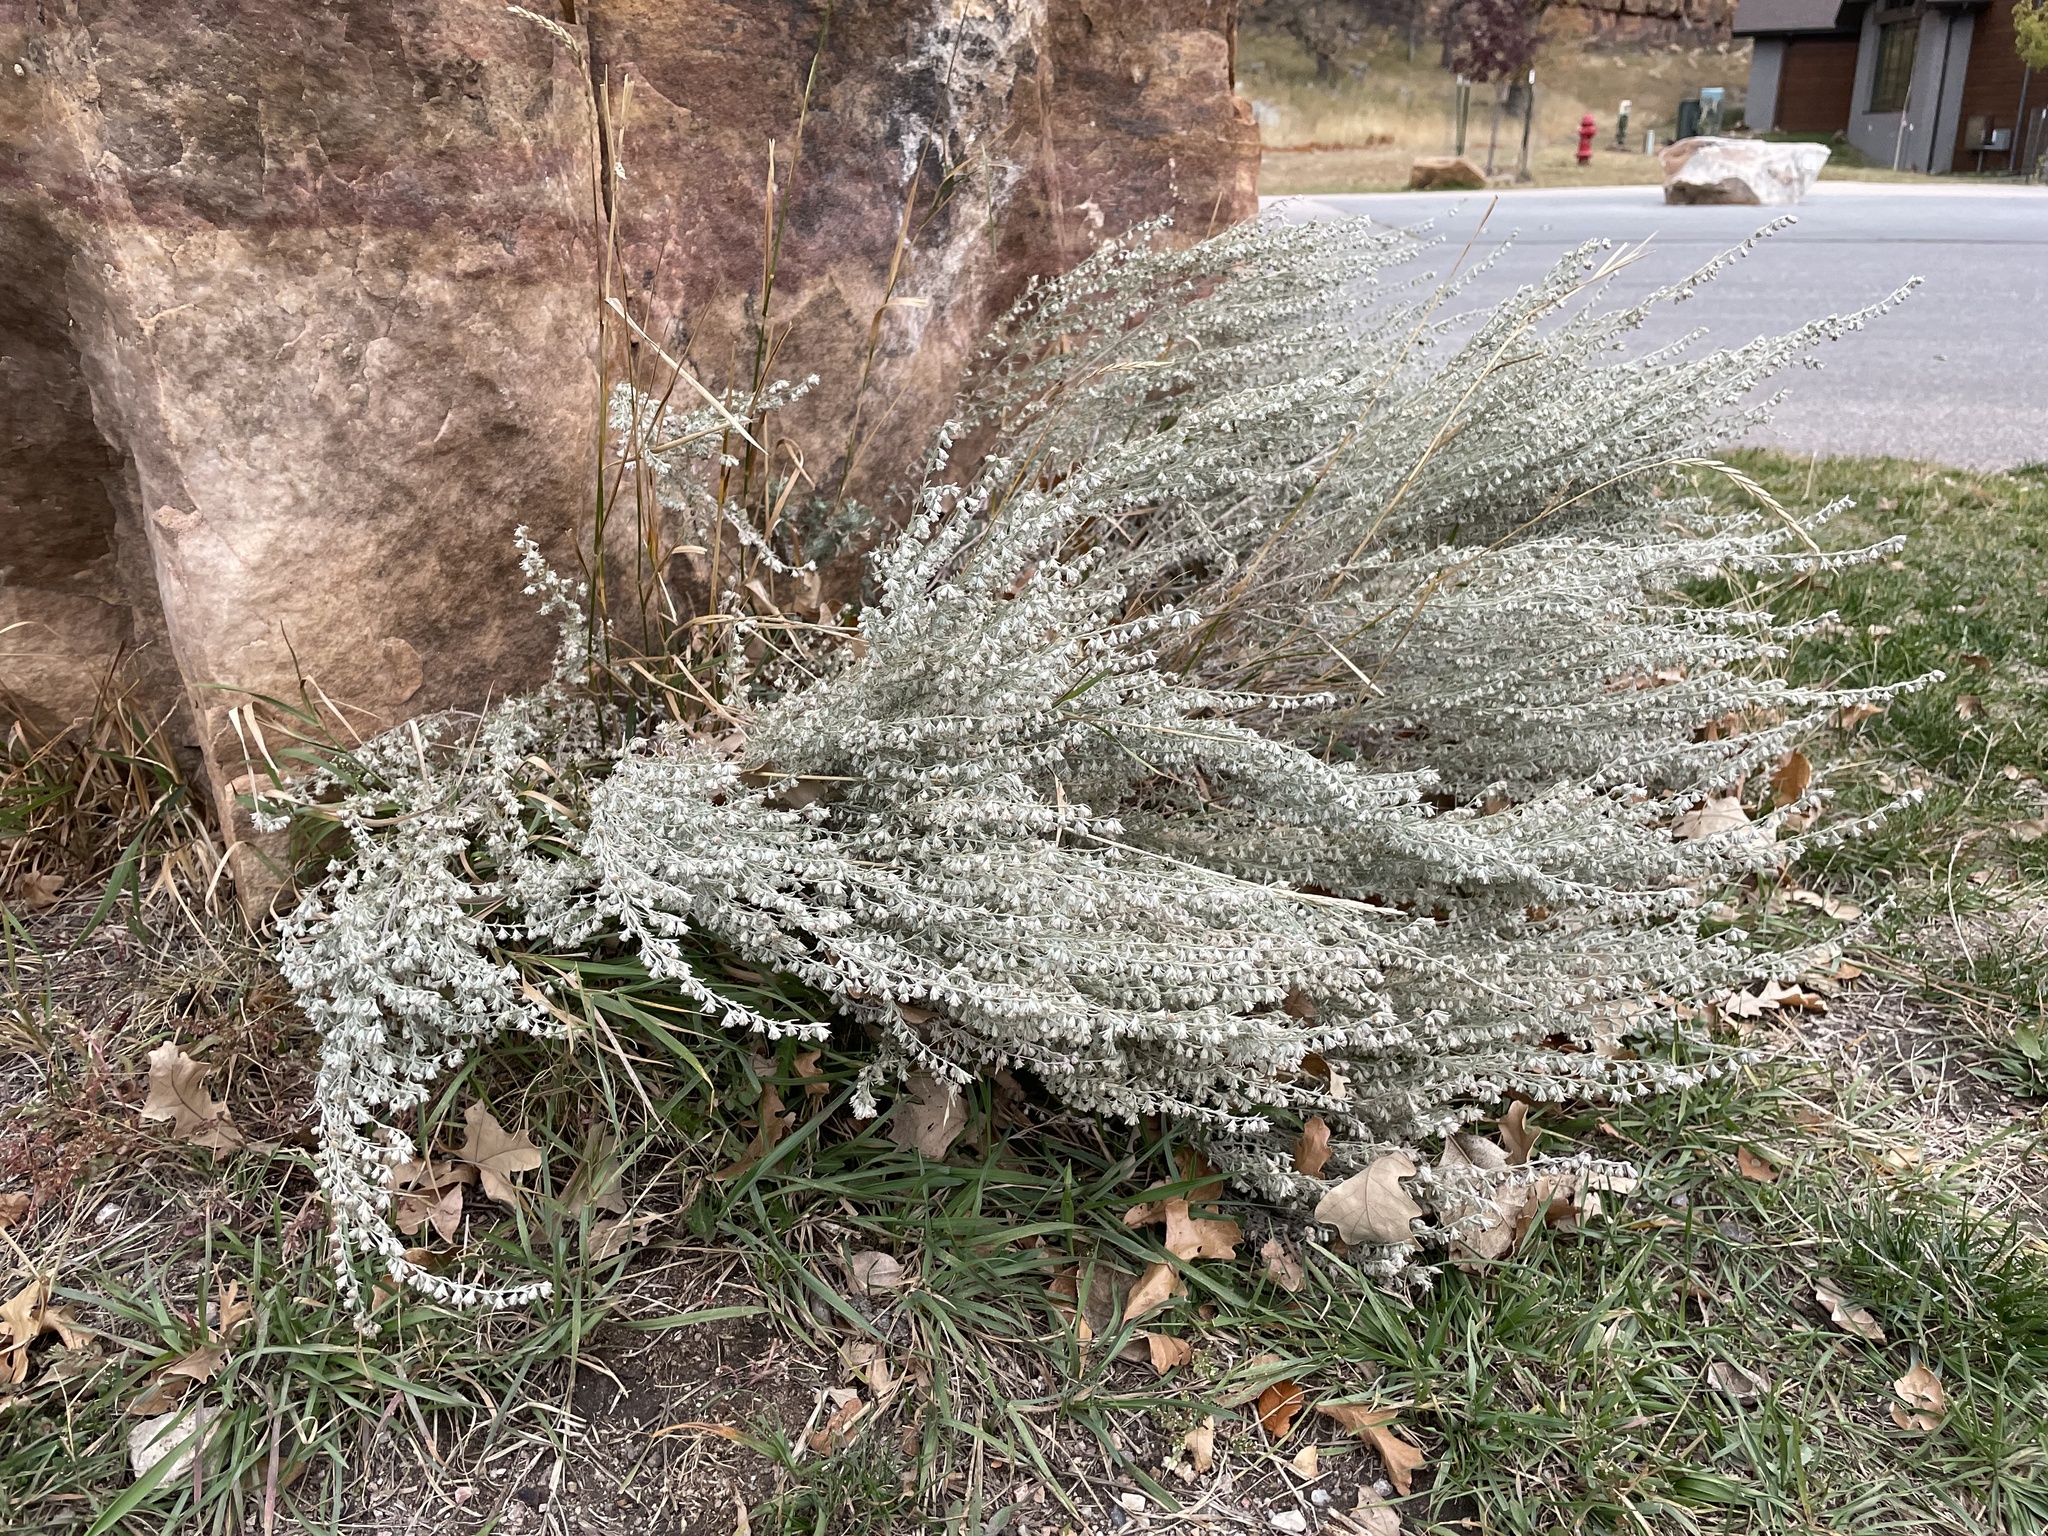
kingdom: Plantae
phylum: Tracheophyta
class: Magnoliopsida
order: Asterales
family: Asteraceae
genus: Artemisia
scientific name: Artemisia frigida
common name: Prairie sagewort
